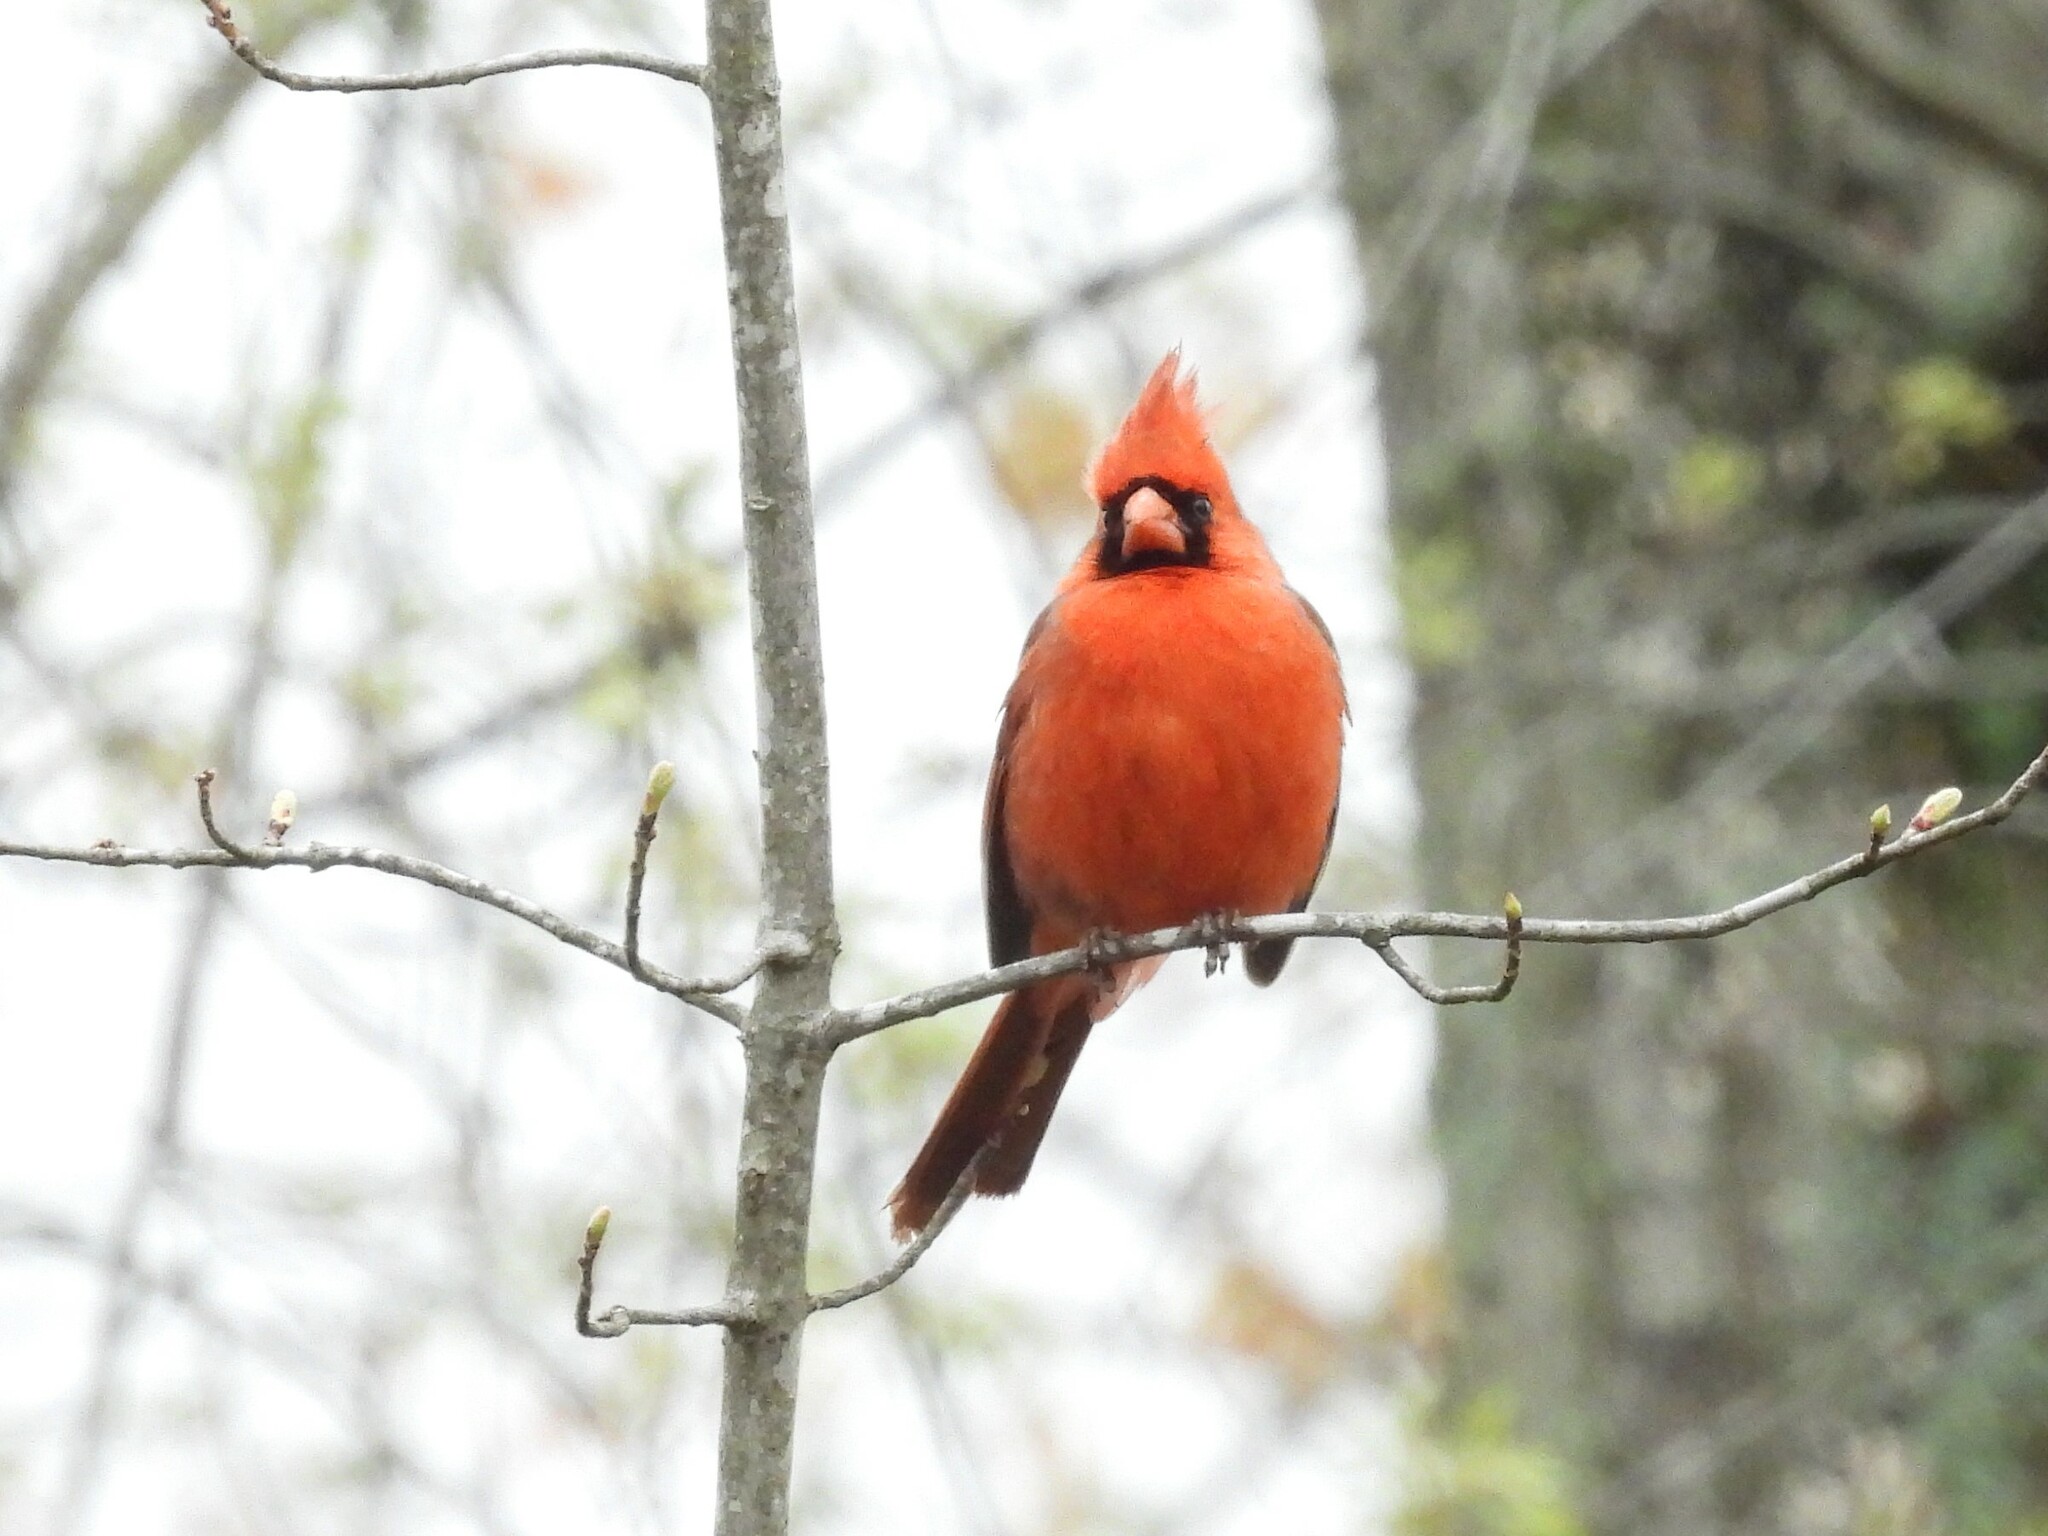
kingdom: Animalia
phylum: Chordata
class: Aves
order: Passeriformes
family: Cardinalidae
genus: Cardinalis
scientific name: Cardinalis cardinalis
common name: Northern cardinal
